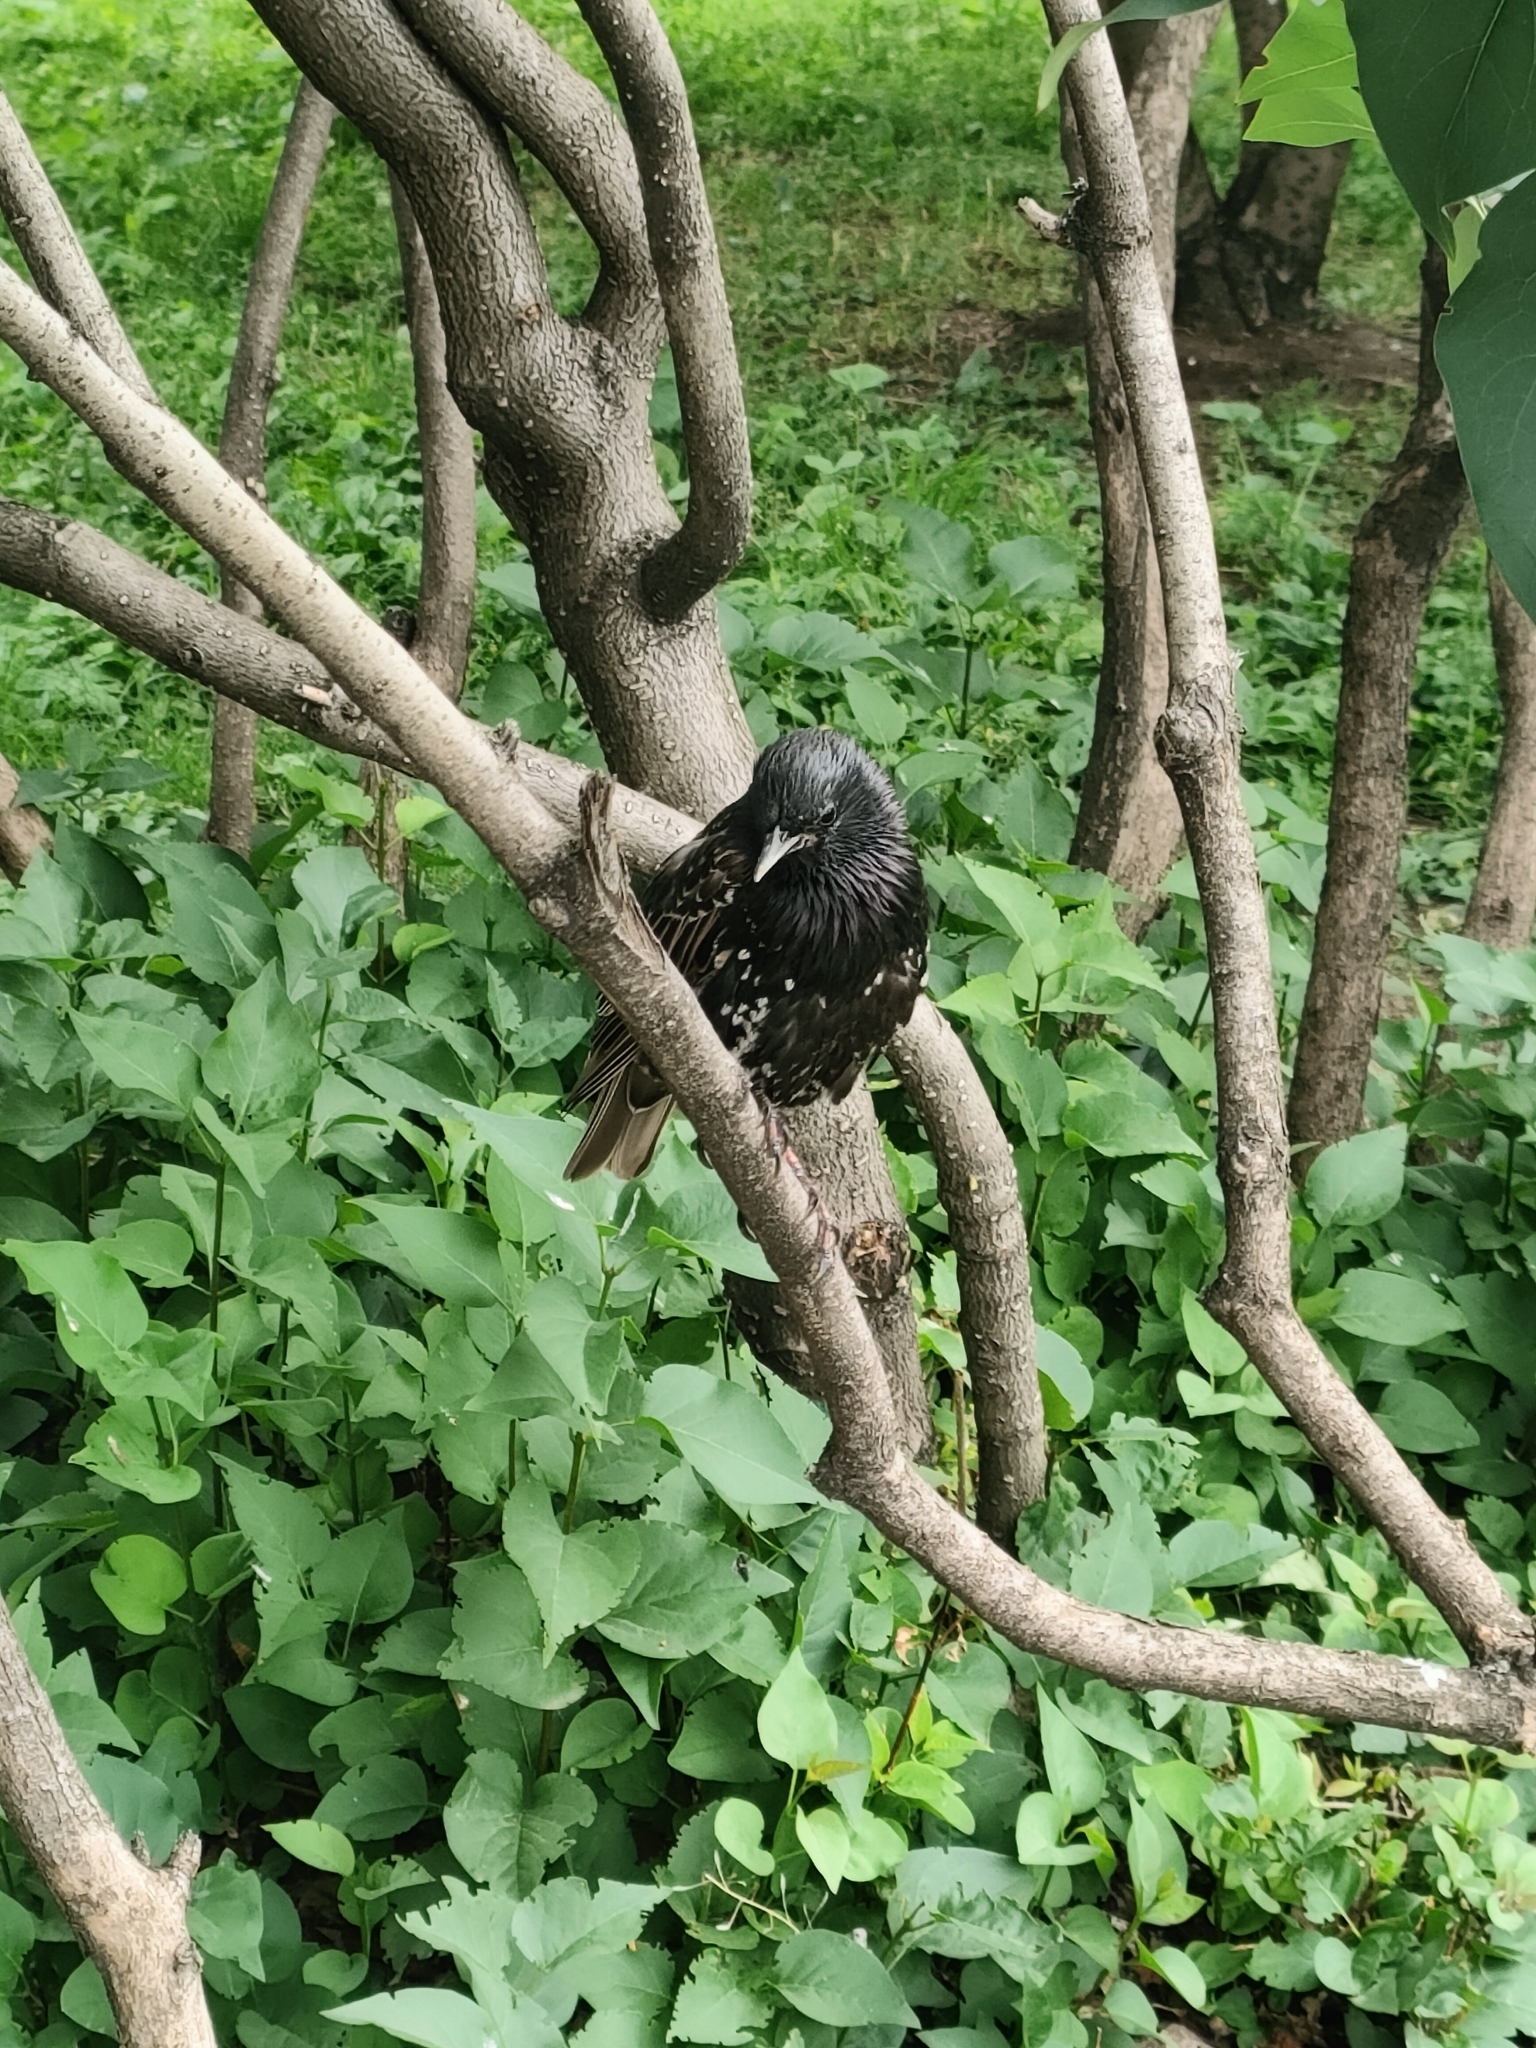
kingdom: Animalia
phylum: Chordata
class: Aves
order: Passeriformes
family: Sturnidae
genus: Sturnus
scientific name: Sturnus vulgaris
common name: Common starling
